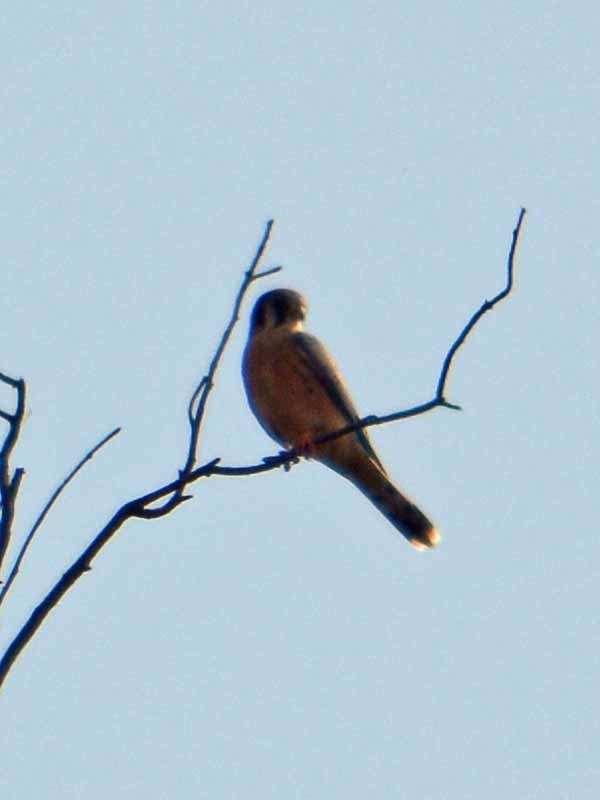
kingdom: Animalia
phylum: Chordata
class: Aves
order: Falconiformes
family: Falconidae
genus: Falco
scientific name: Falco sparverius
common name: American kestrel
